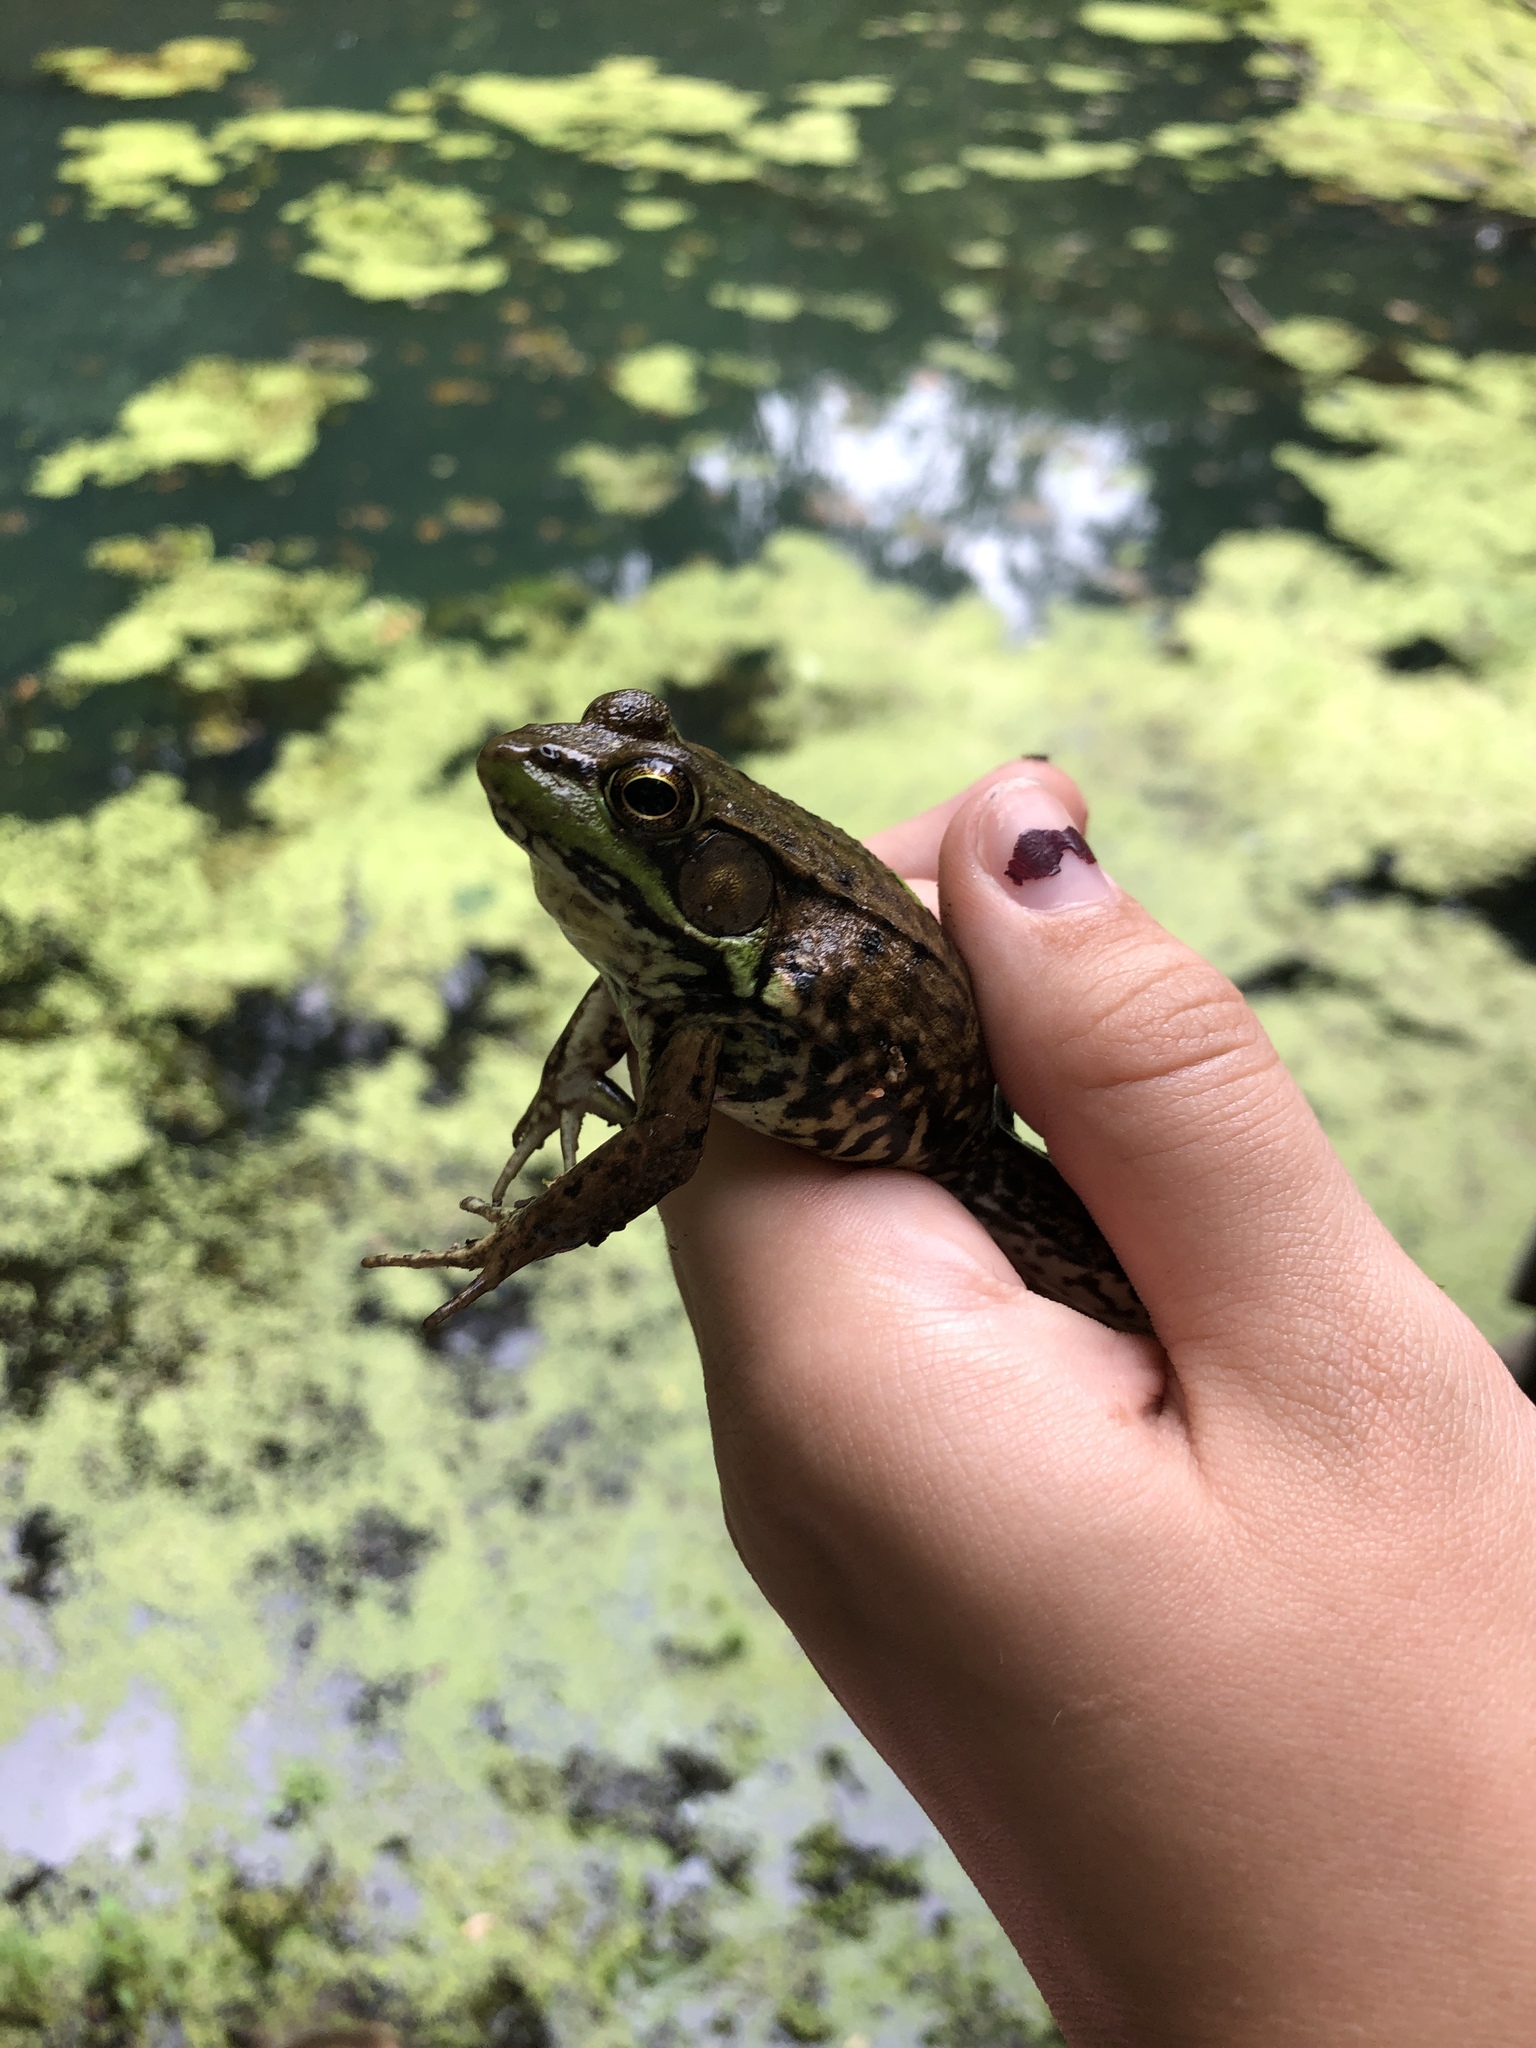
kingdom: Animalia
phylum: Chordata
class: Amphibia
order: Anura
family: Ranidae
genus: Lithobates
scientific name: Lithobates clamitans
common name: Green frog
